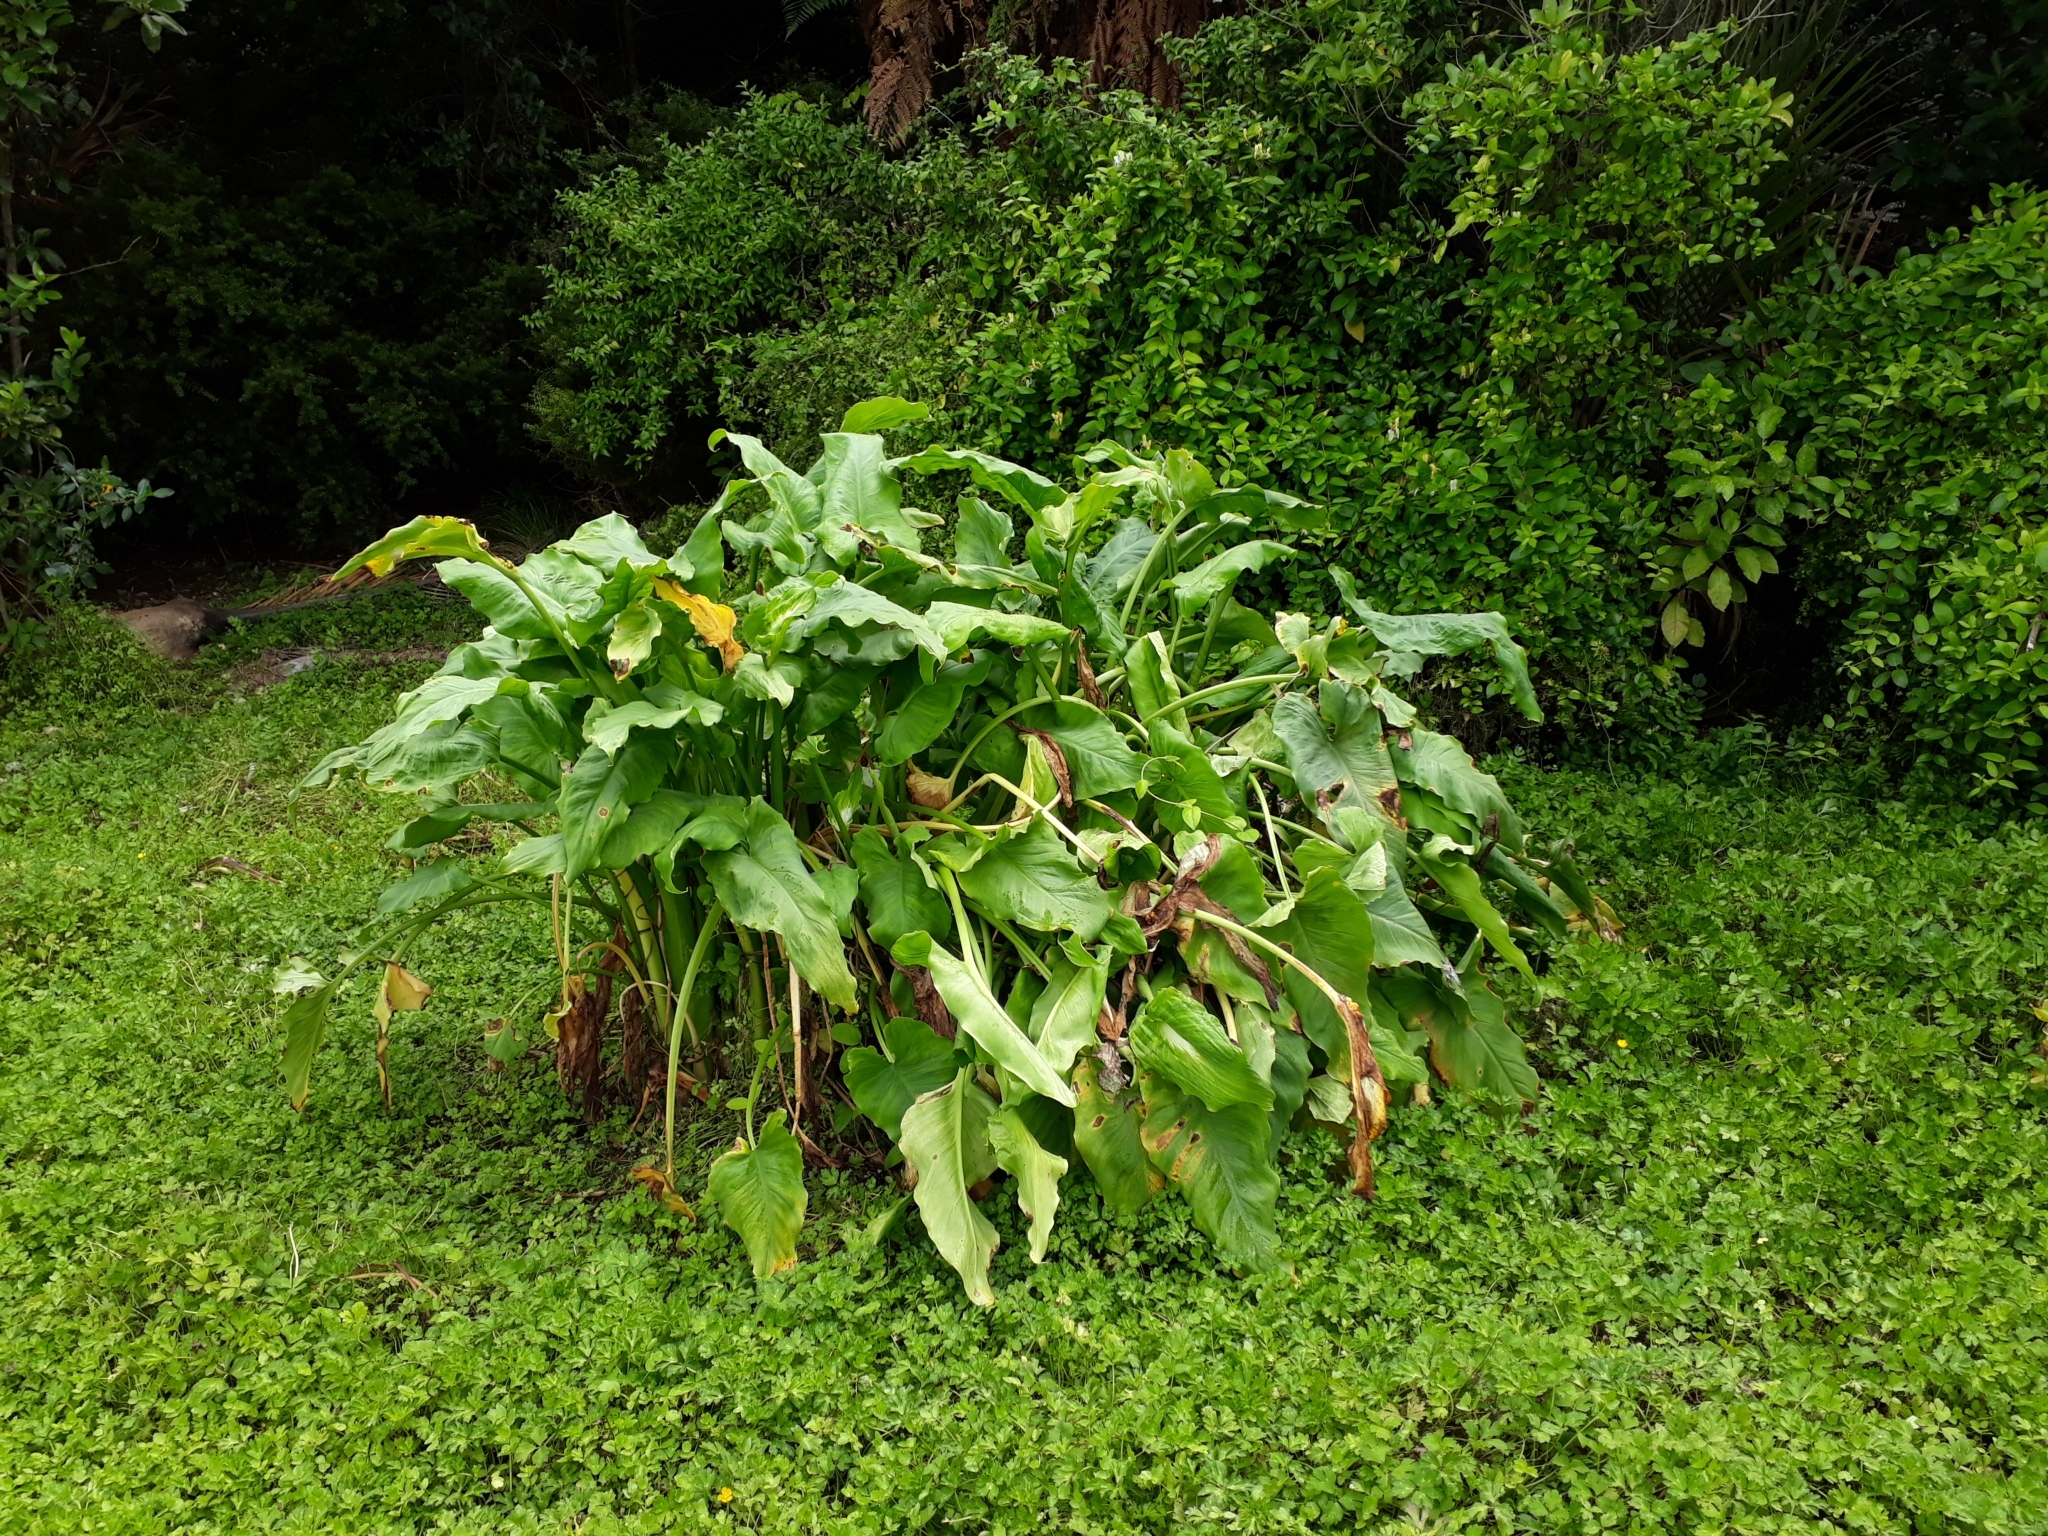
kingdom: Plantae
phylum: Tracheophyta
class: Liliopsida
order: Alismatales
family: Araceae
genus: Zantedeschia
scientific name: Zantedeschia aethiopica
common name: Altar-lily
